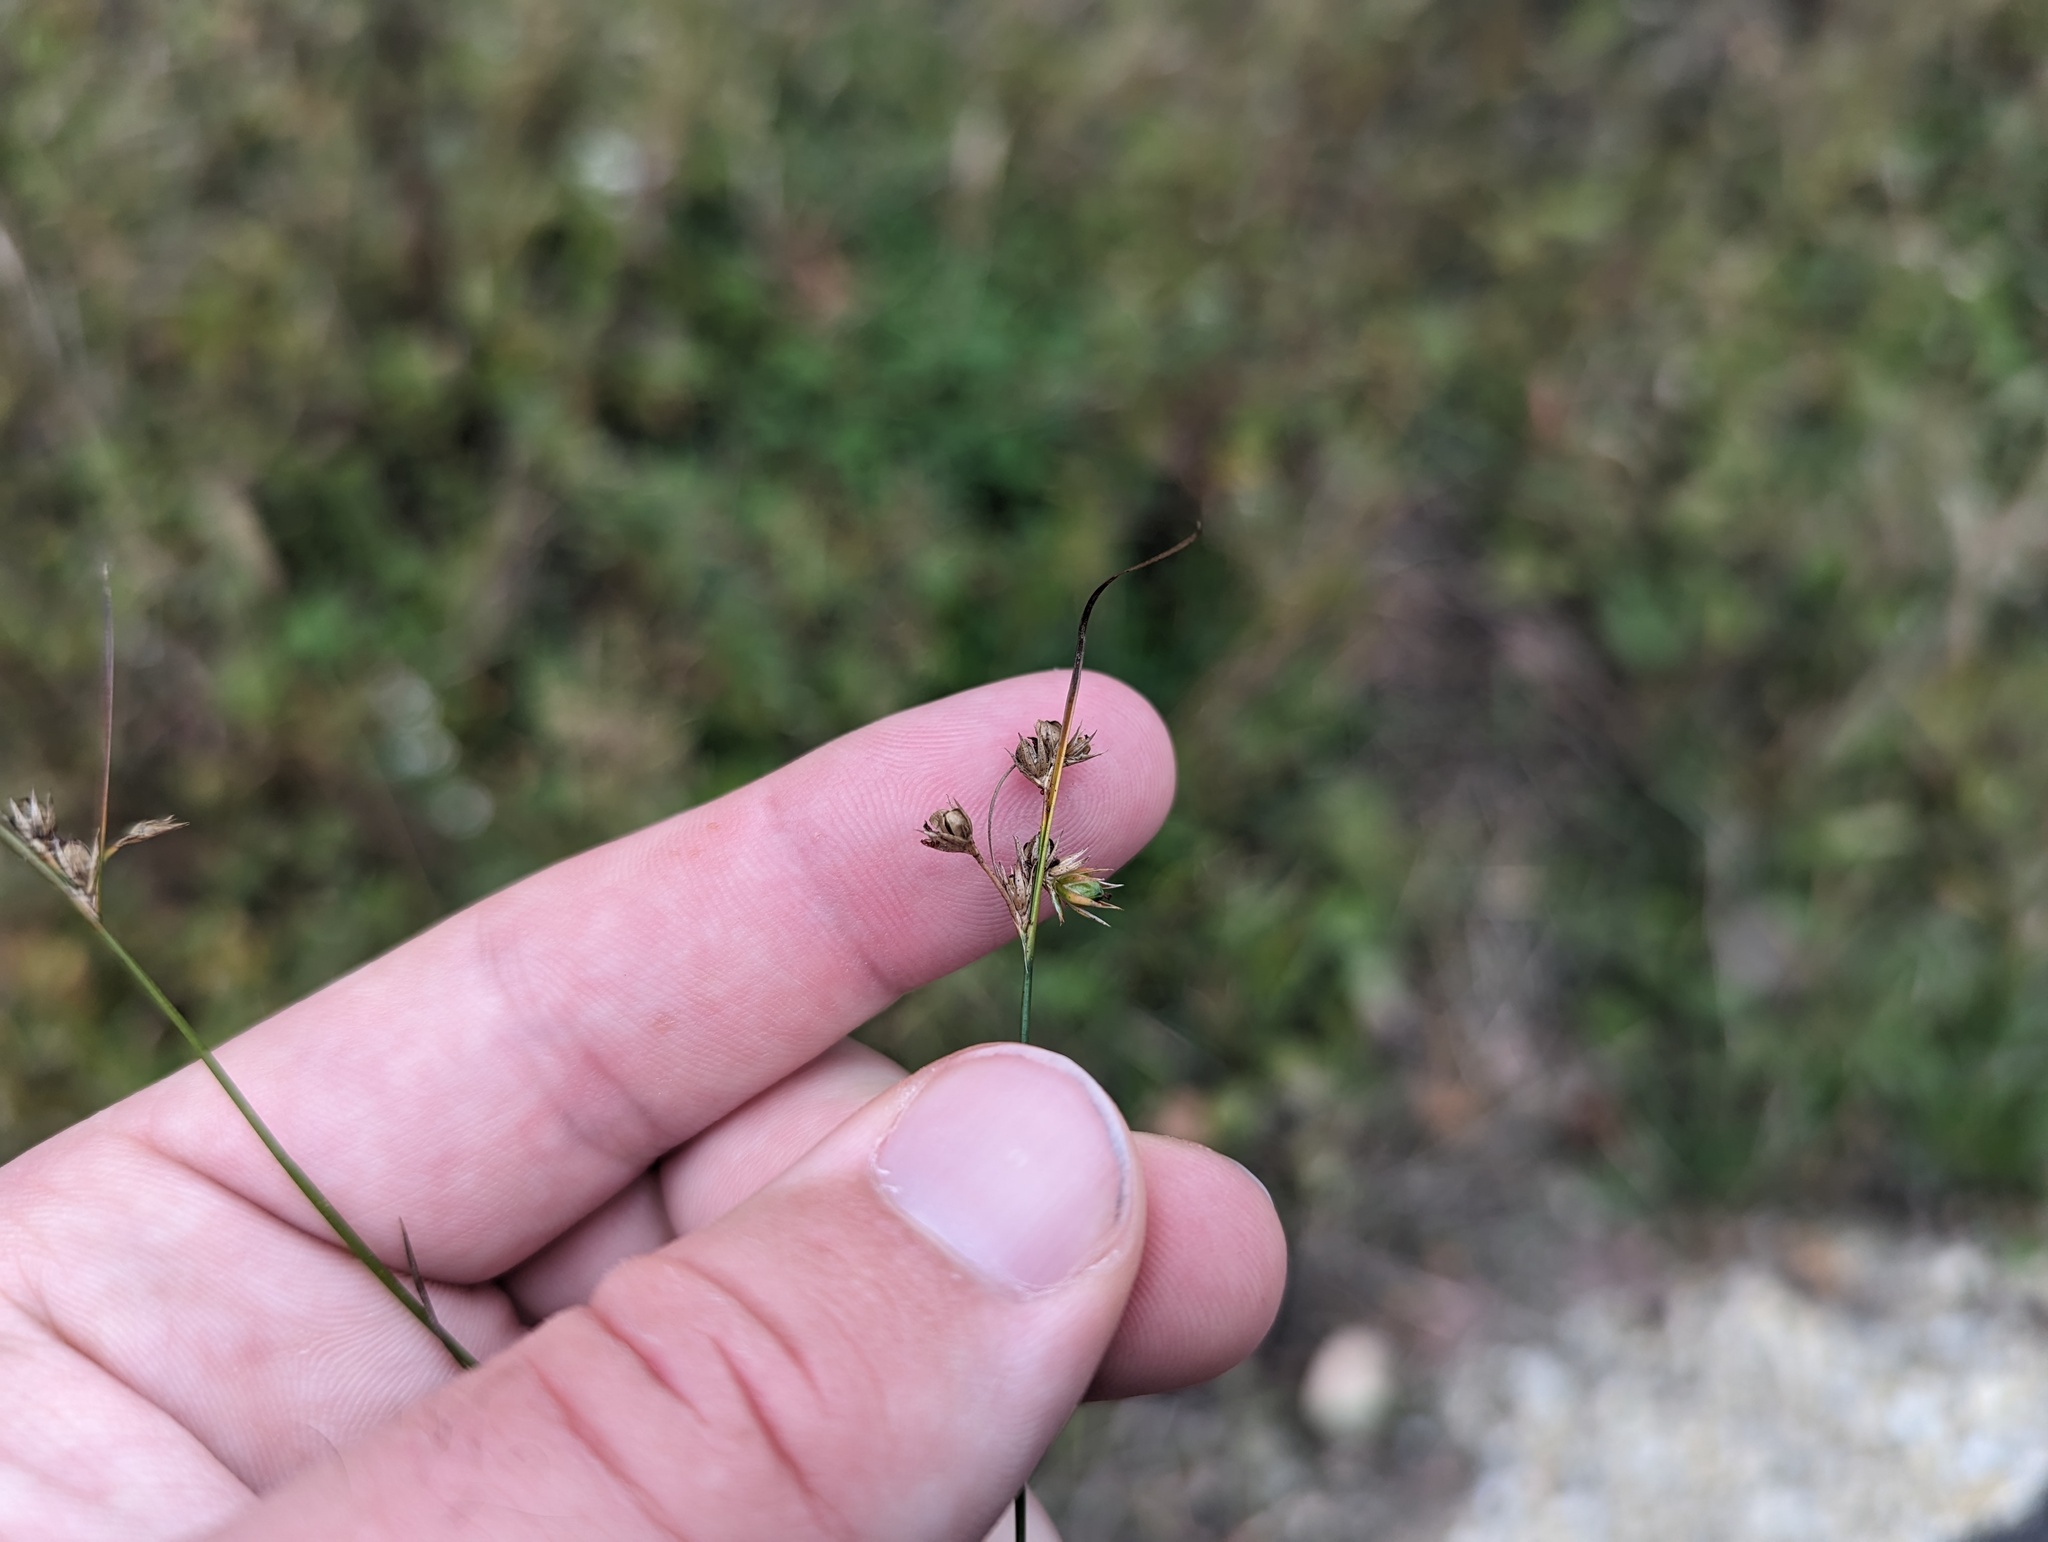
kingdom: Plantae
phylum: Tracheophyta
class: Liliopsida
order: Poales
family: Juncaceae
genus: Juncus
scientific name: Juncus tenuis
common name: Slender rush
